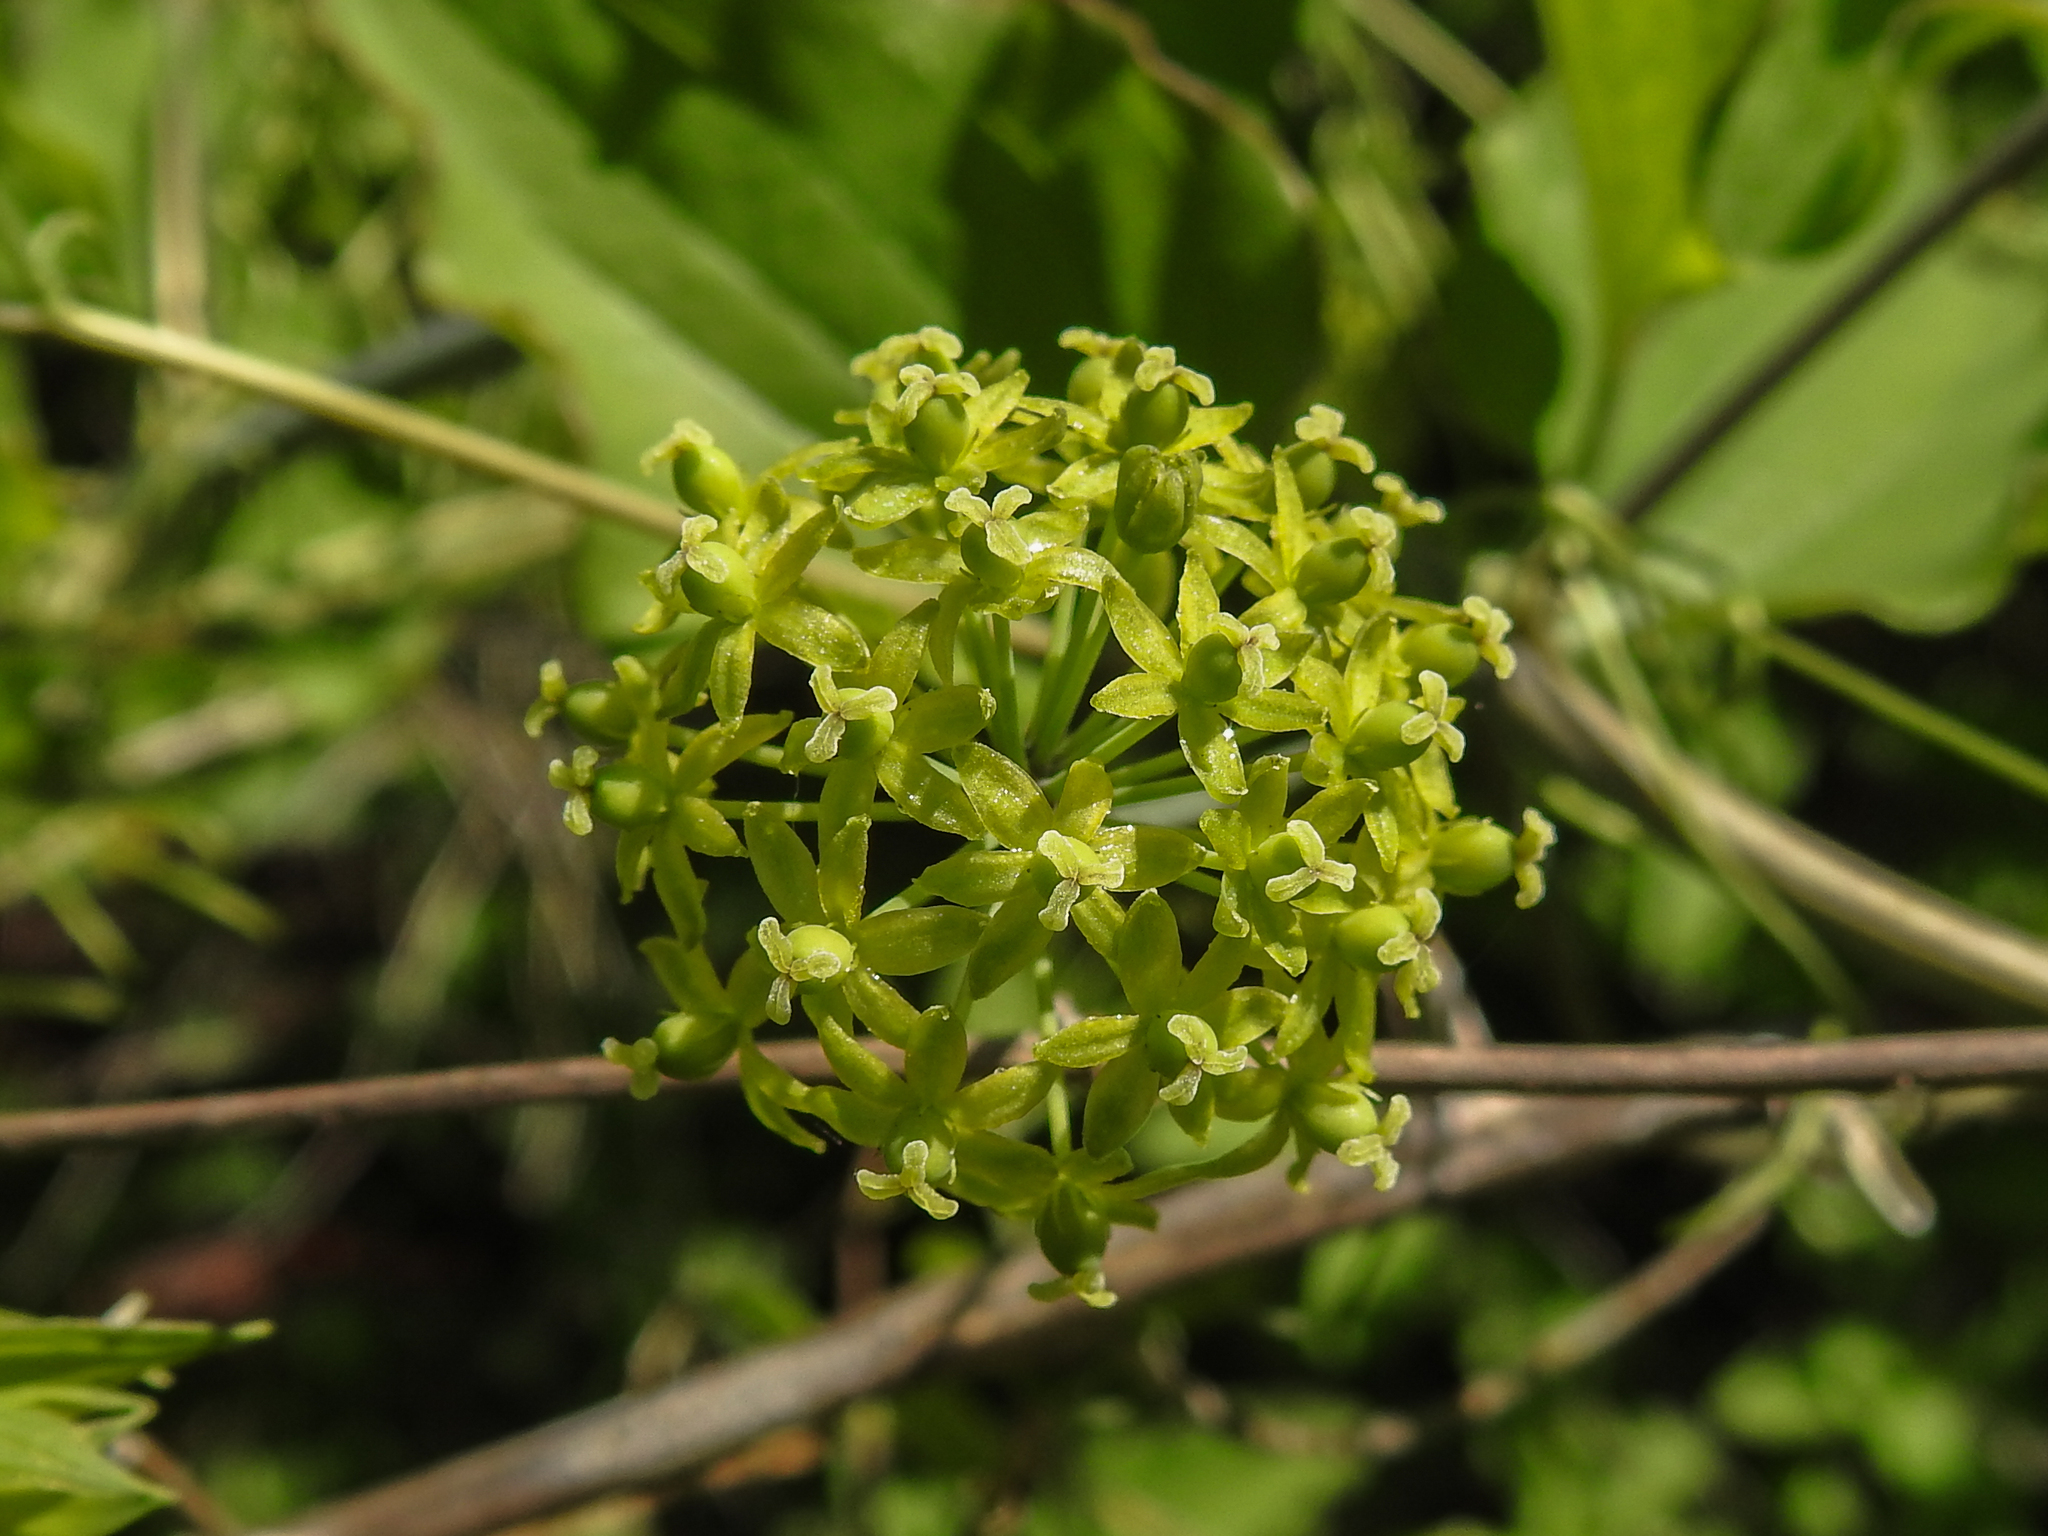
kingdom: Plantae
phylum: Tracheophyta
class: Liliopsida
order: Liliales
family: Smilacaceae
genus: Smilax
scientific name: Smilax herbacea
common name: Jacob's-ladder
